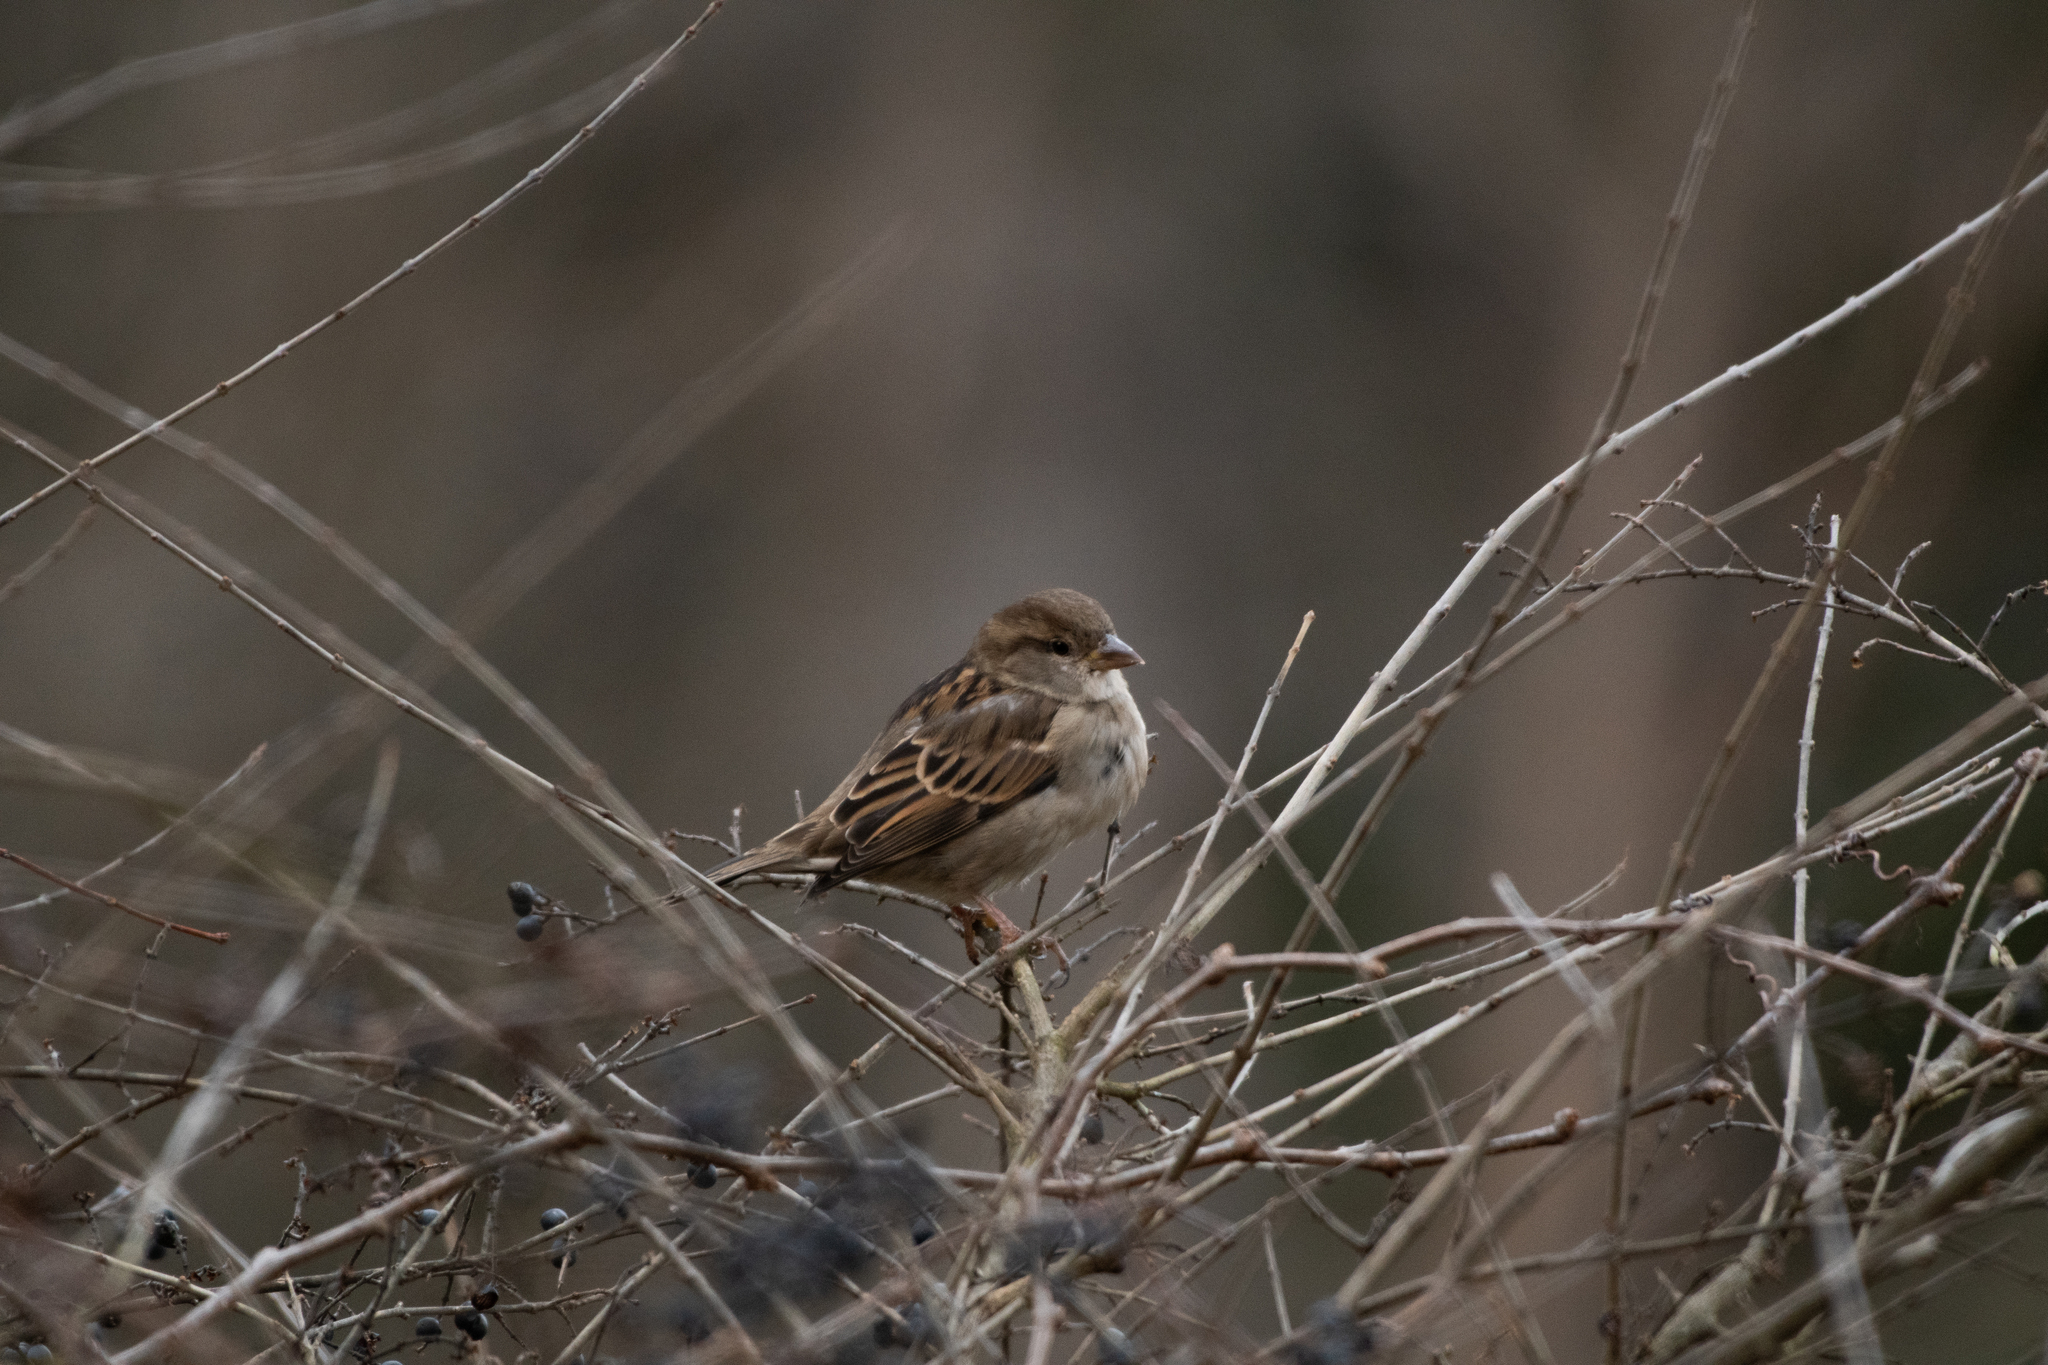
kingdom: Animalia
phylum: Chordata
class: Aves
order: Passeriformes
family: Passeridae
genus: Passer
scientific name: Passer domesticus
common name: House sparrow
